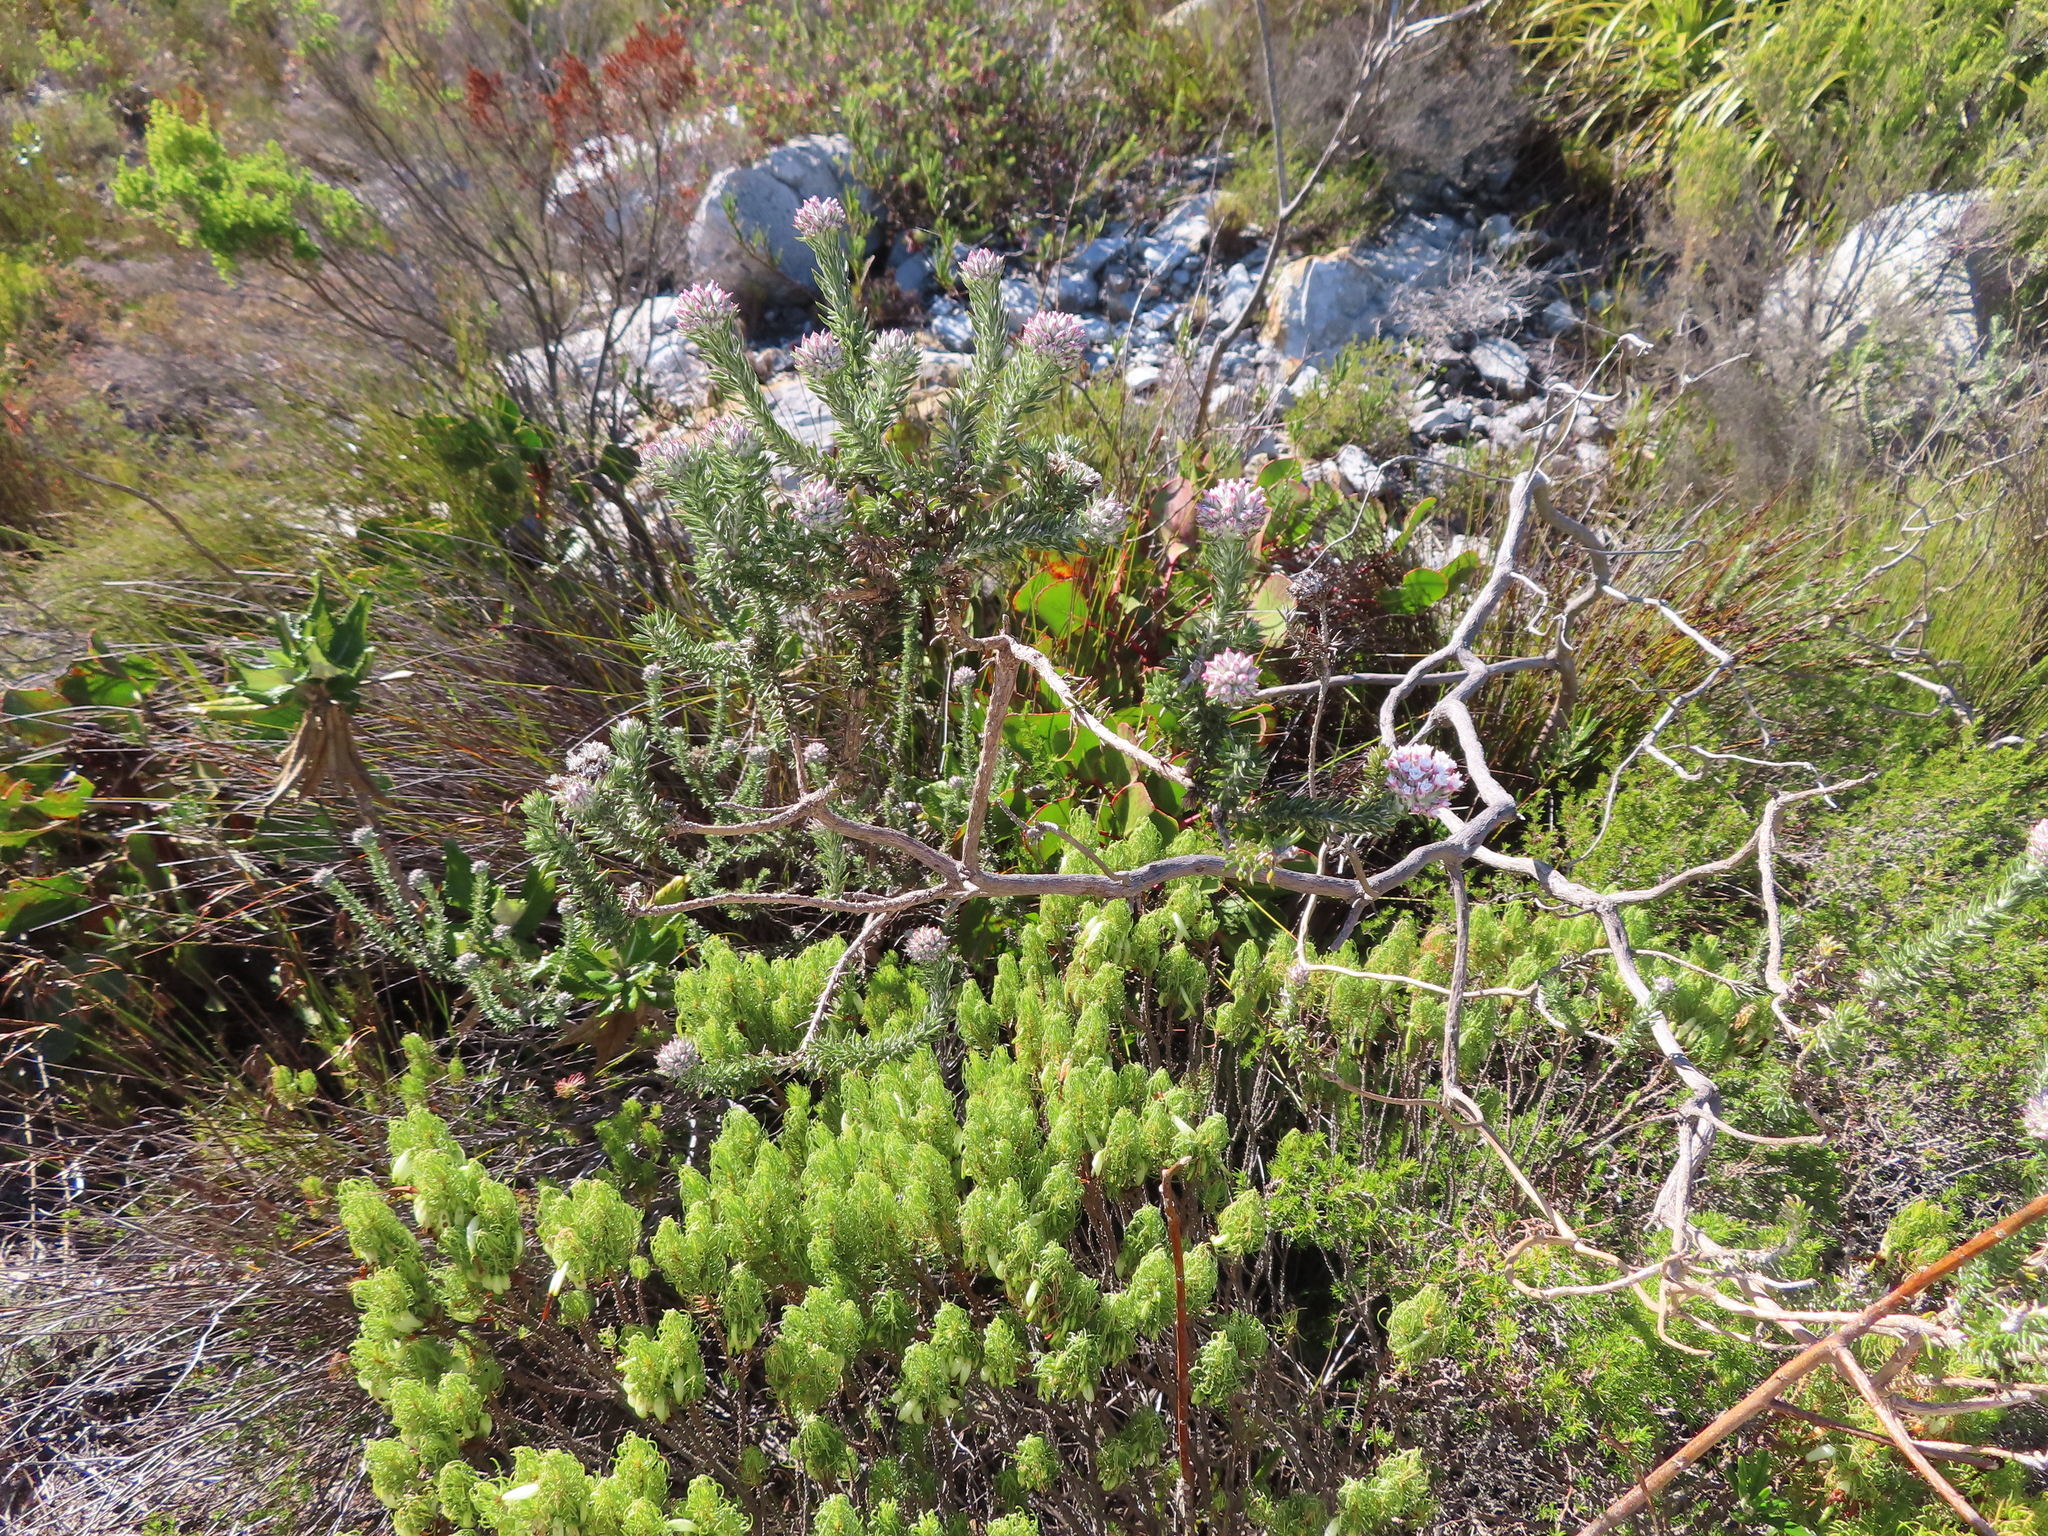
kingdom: Plantae
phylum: Tracheophyta
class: Magnoliopsida
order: Asterales
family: Asteraceae
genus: Metalasia
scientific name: Metalasia lichtensteinii
